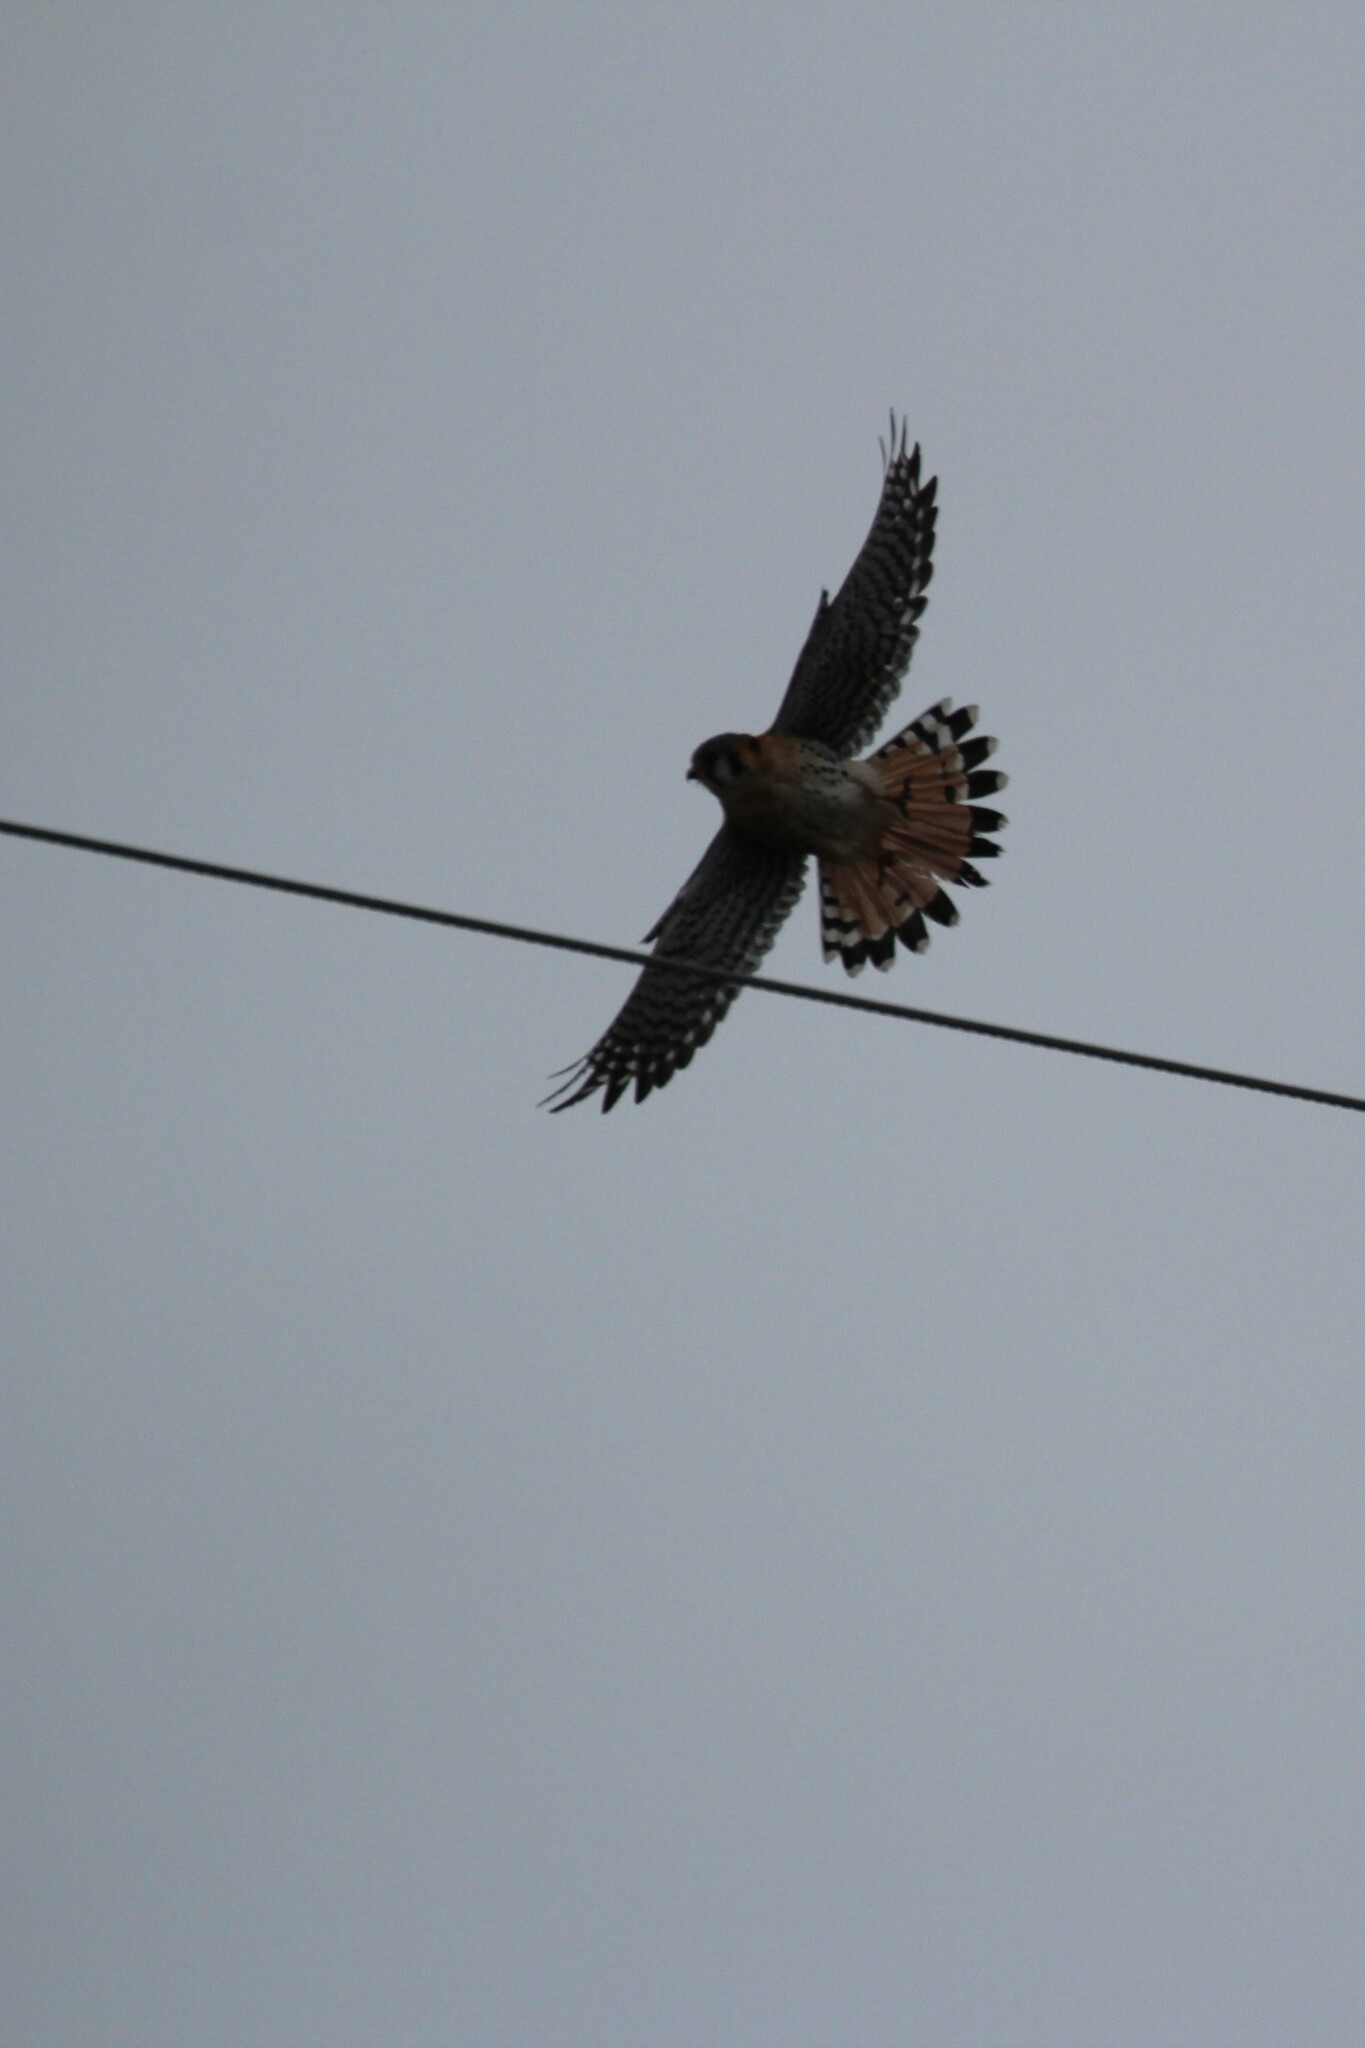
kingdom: Animalia
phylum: Chordata
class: Aves
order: Falconiformes
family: Falconidae
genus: Falco
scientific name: Falco sparverius
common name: American kestrel
